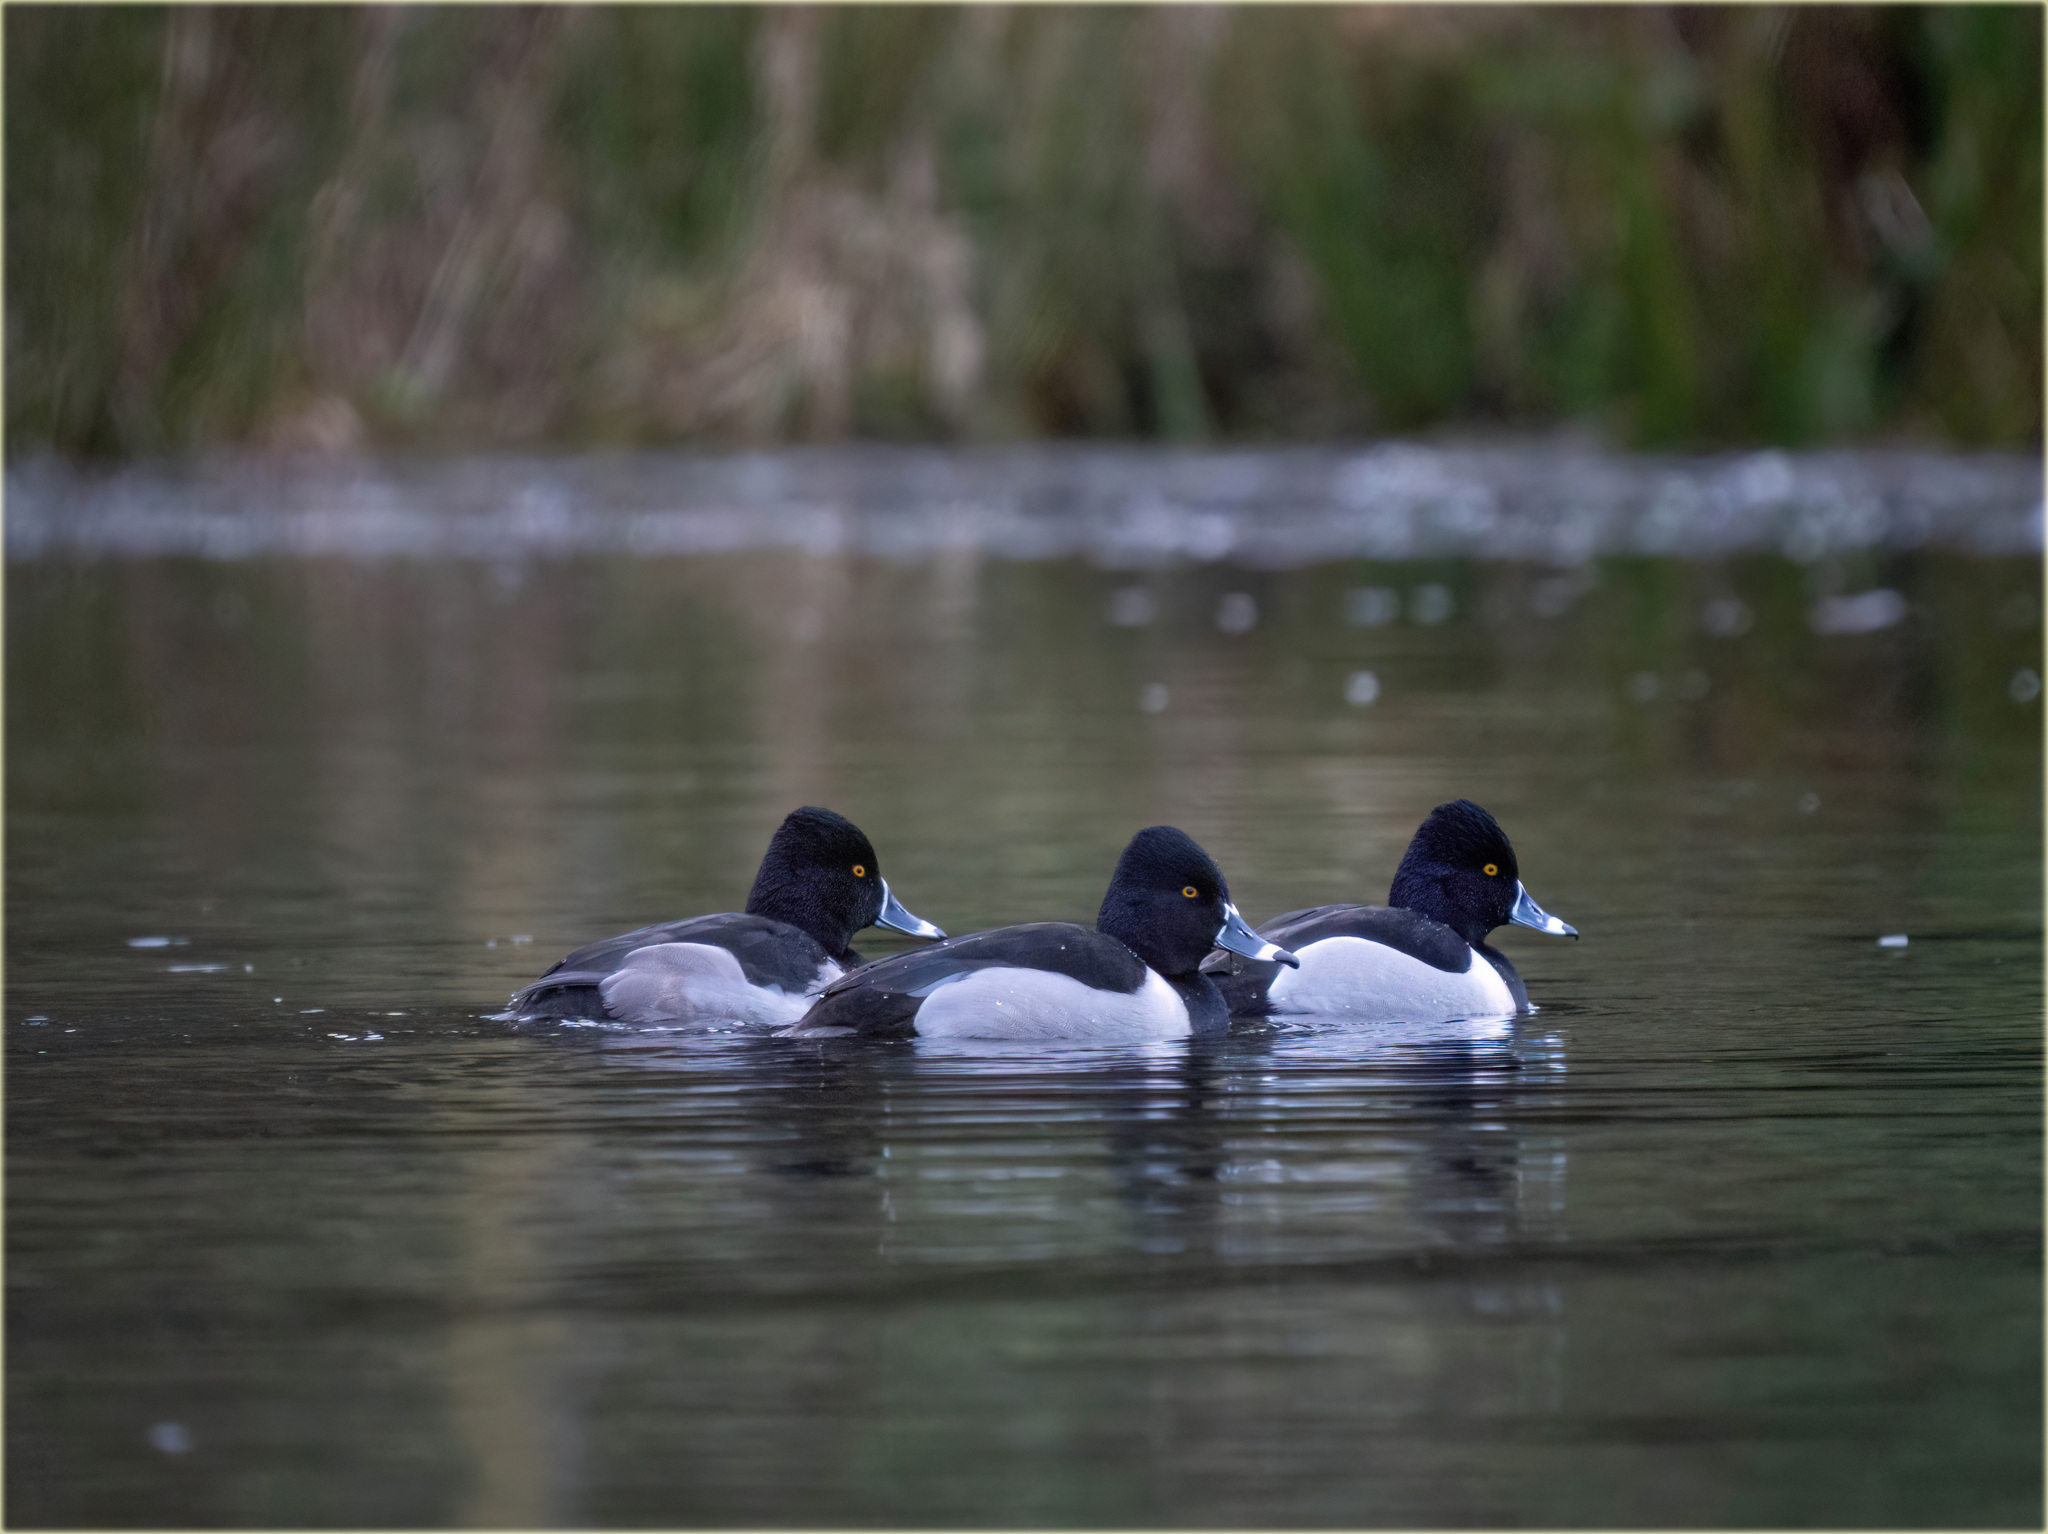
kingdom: Animalia
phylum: Chordata
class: Aves
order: Anseriformes
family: Anatidae
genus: Aythya
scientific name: Aythya collaris
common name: Ring-necked duck
